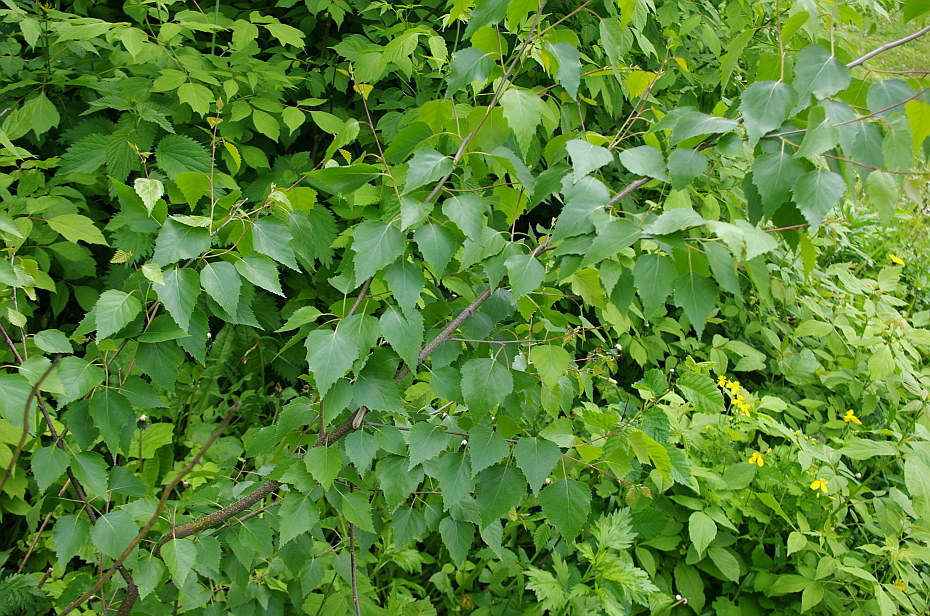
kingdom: Plantae
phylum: Tracheophyta
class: Magnoliopsida
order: Fagales
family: Betulaceae
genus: Betula
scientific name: Betula pendula
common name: Silver birch
